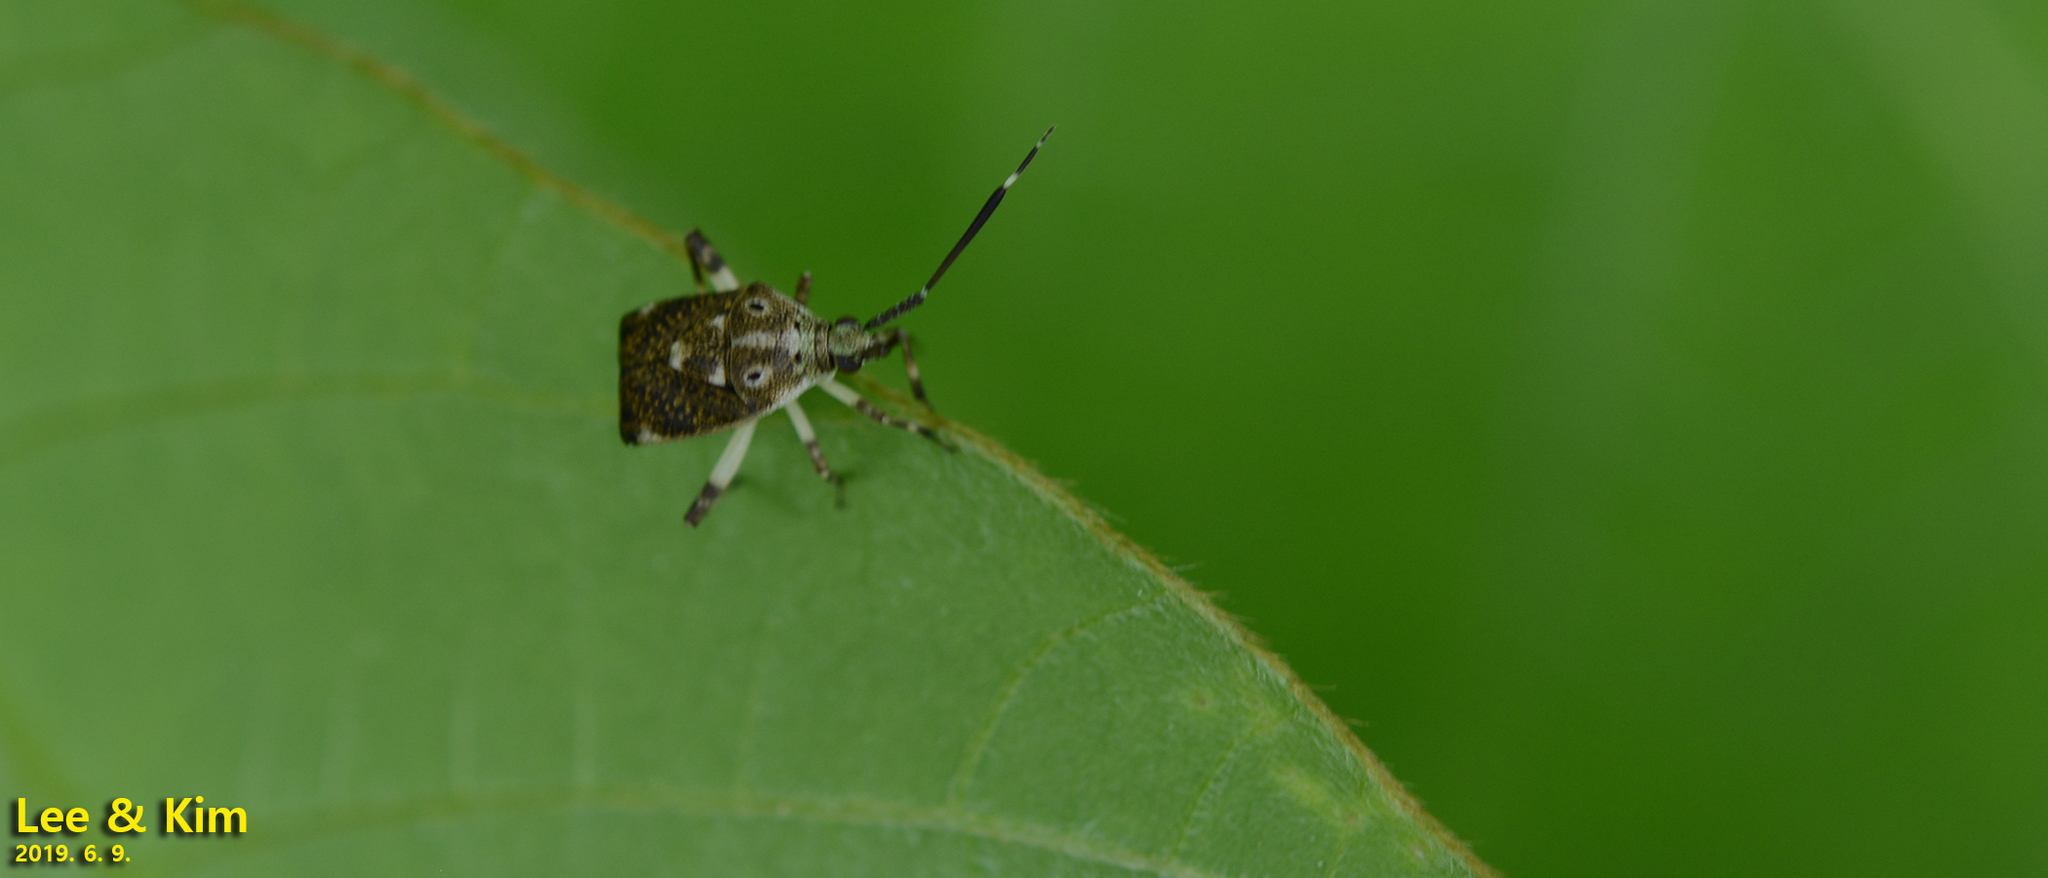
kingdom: Animalia
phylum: Arthropoda
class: Insecta
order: Hemiptera
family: Miridae
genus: Eurystylus
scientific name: Eurystylus coelestialium
